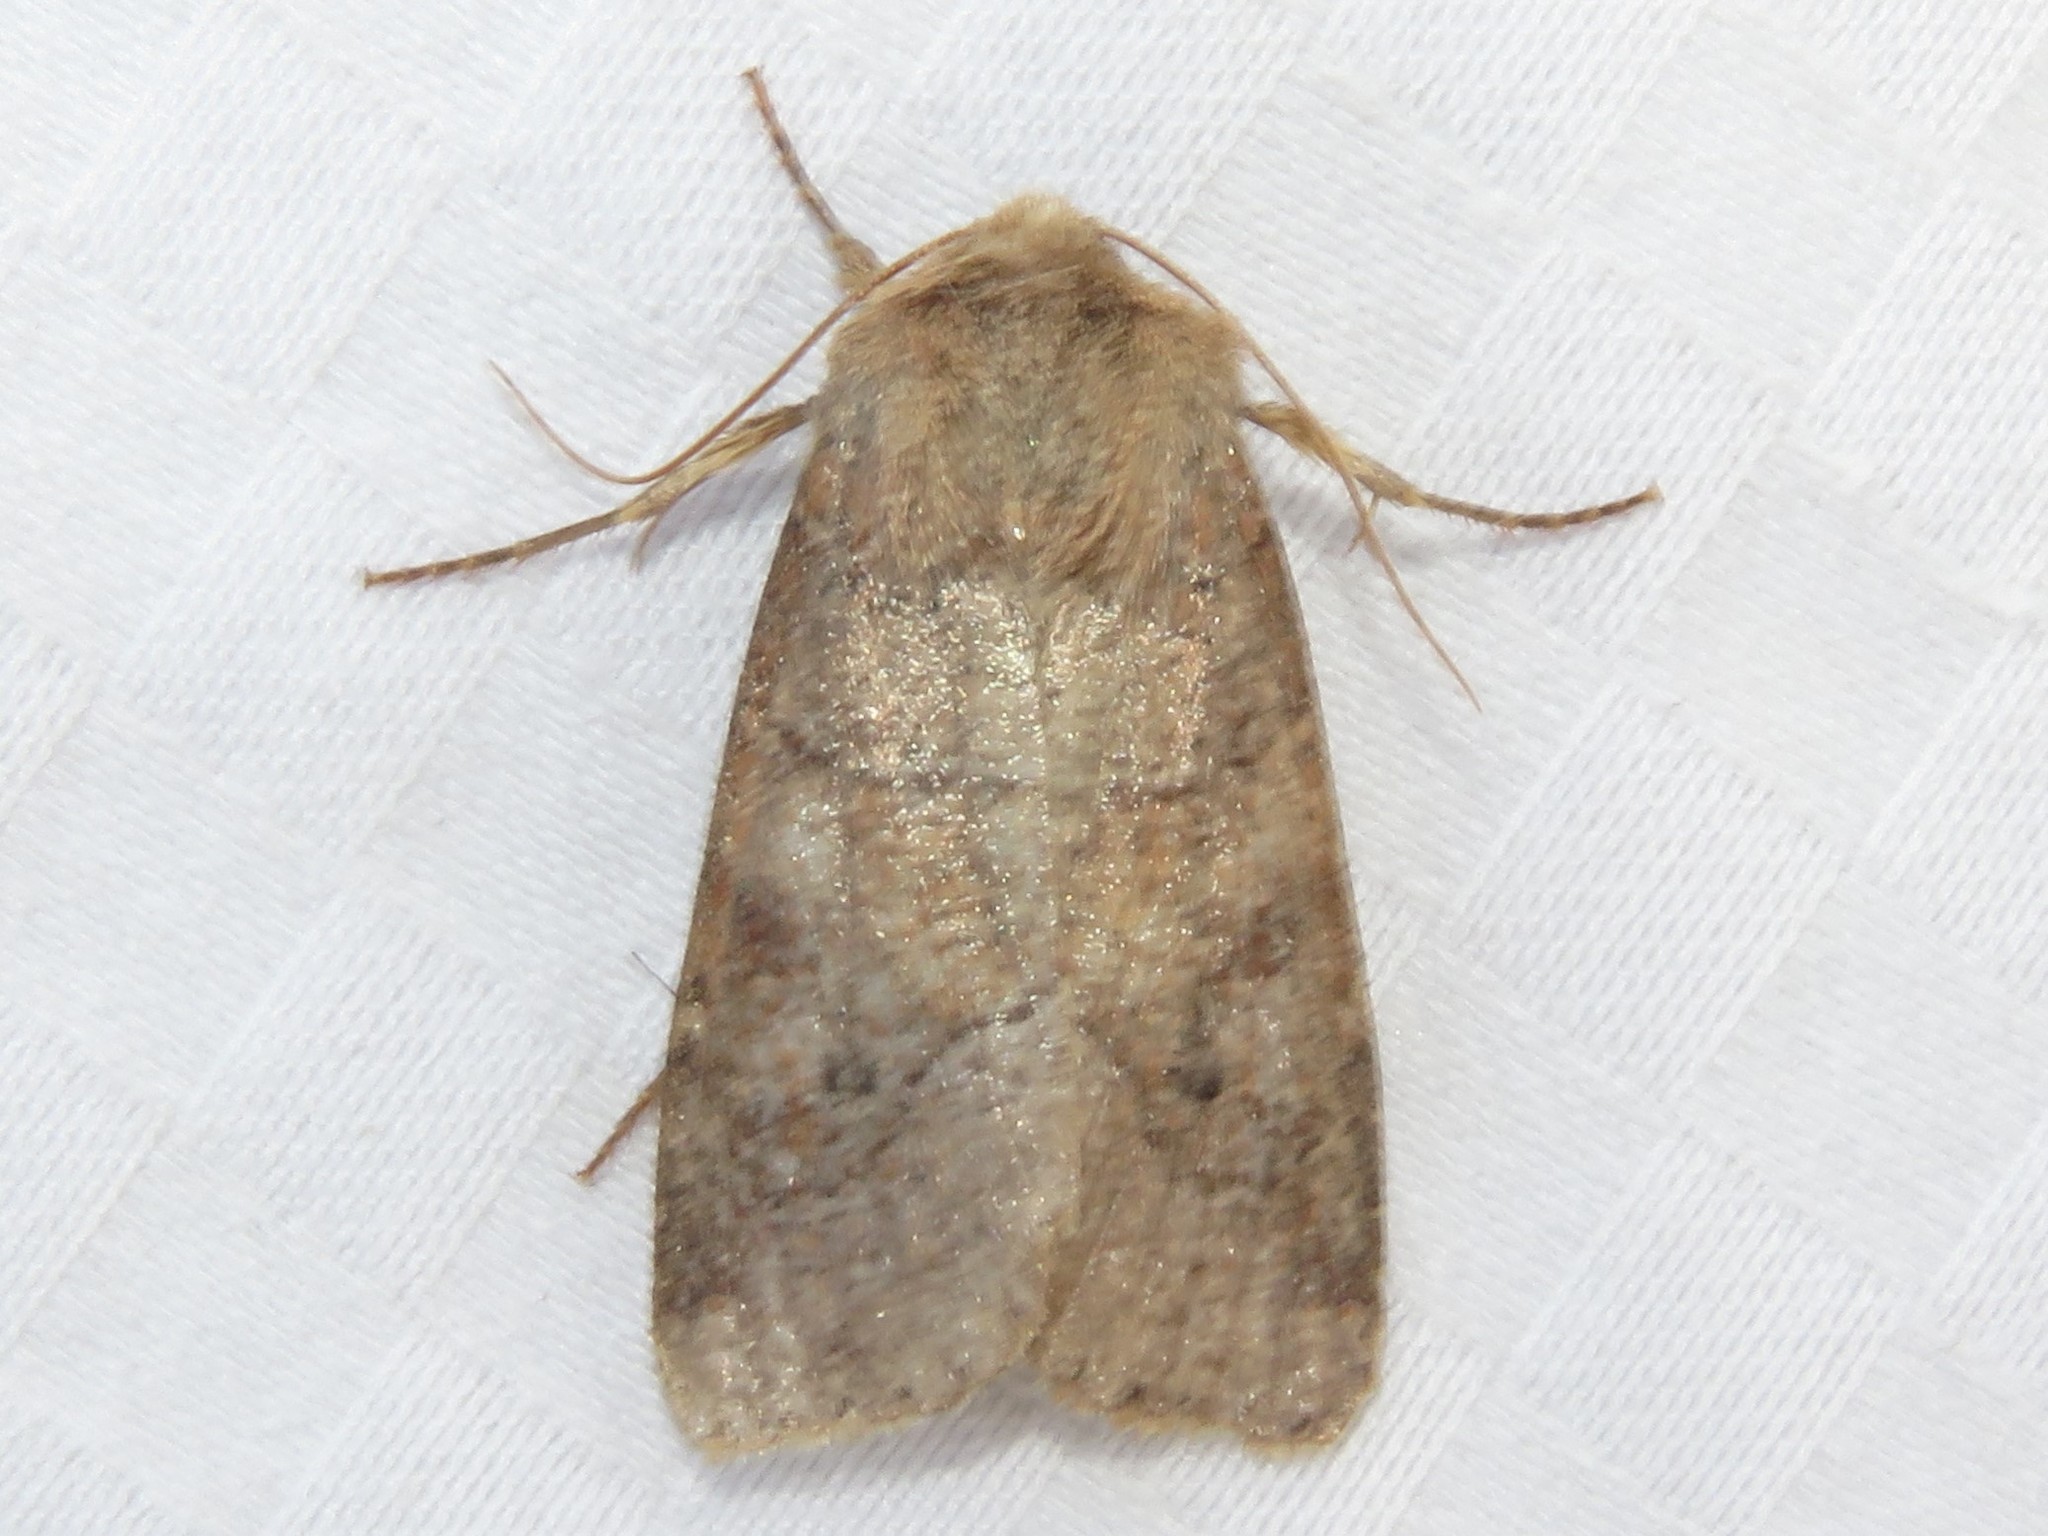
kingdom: Animalia
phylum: Arthropoda
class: Insecta
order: Lepidoptera
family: Noctuidae
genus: Crocigrapha
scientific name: Crocigrapha normani
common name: Norman's quaker
